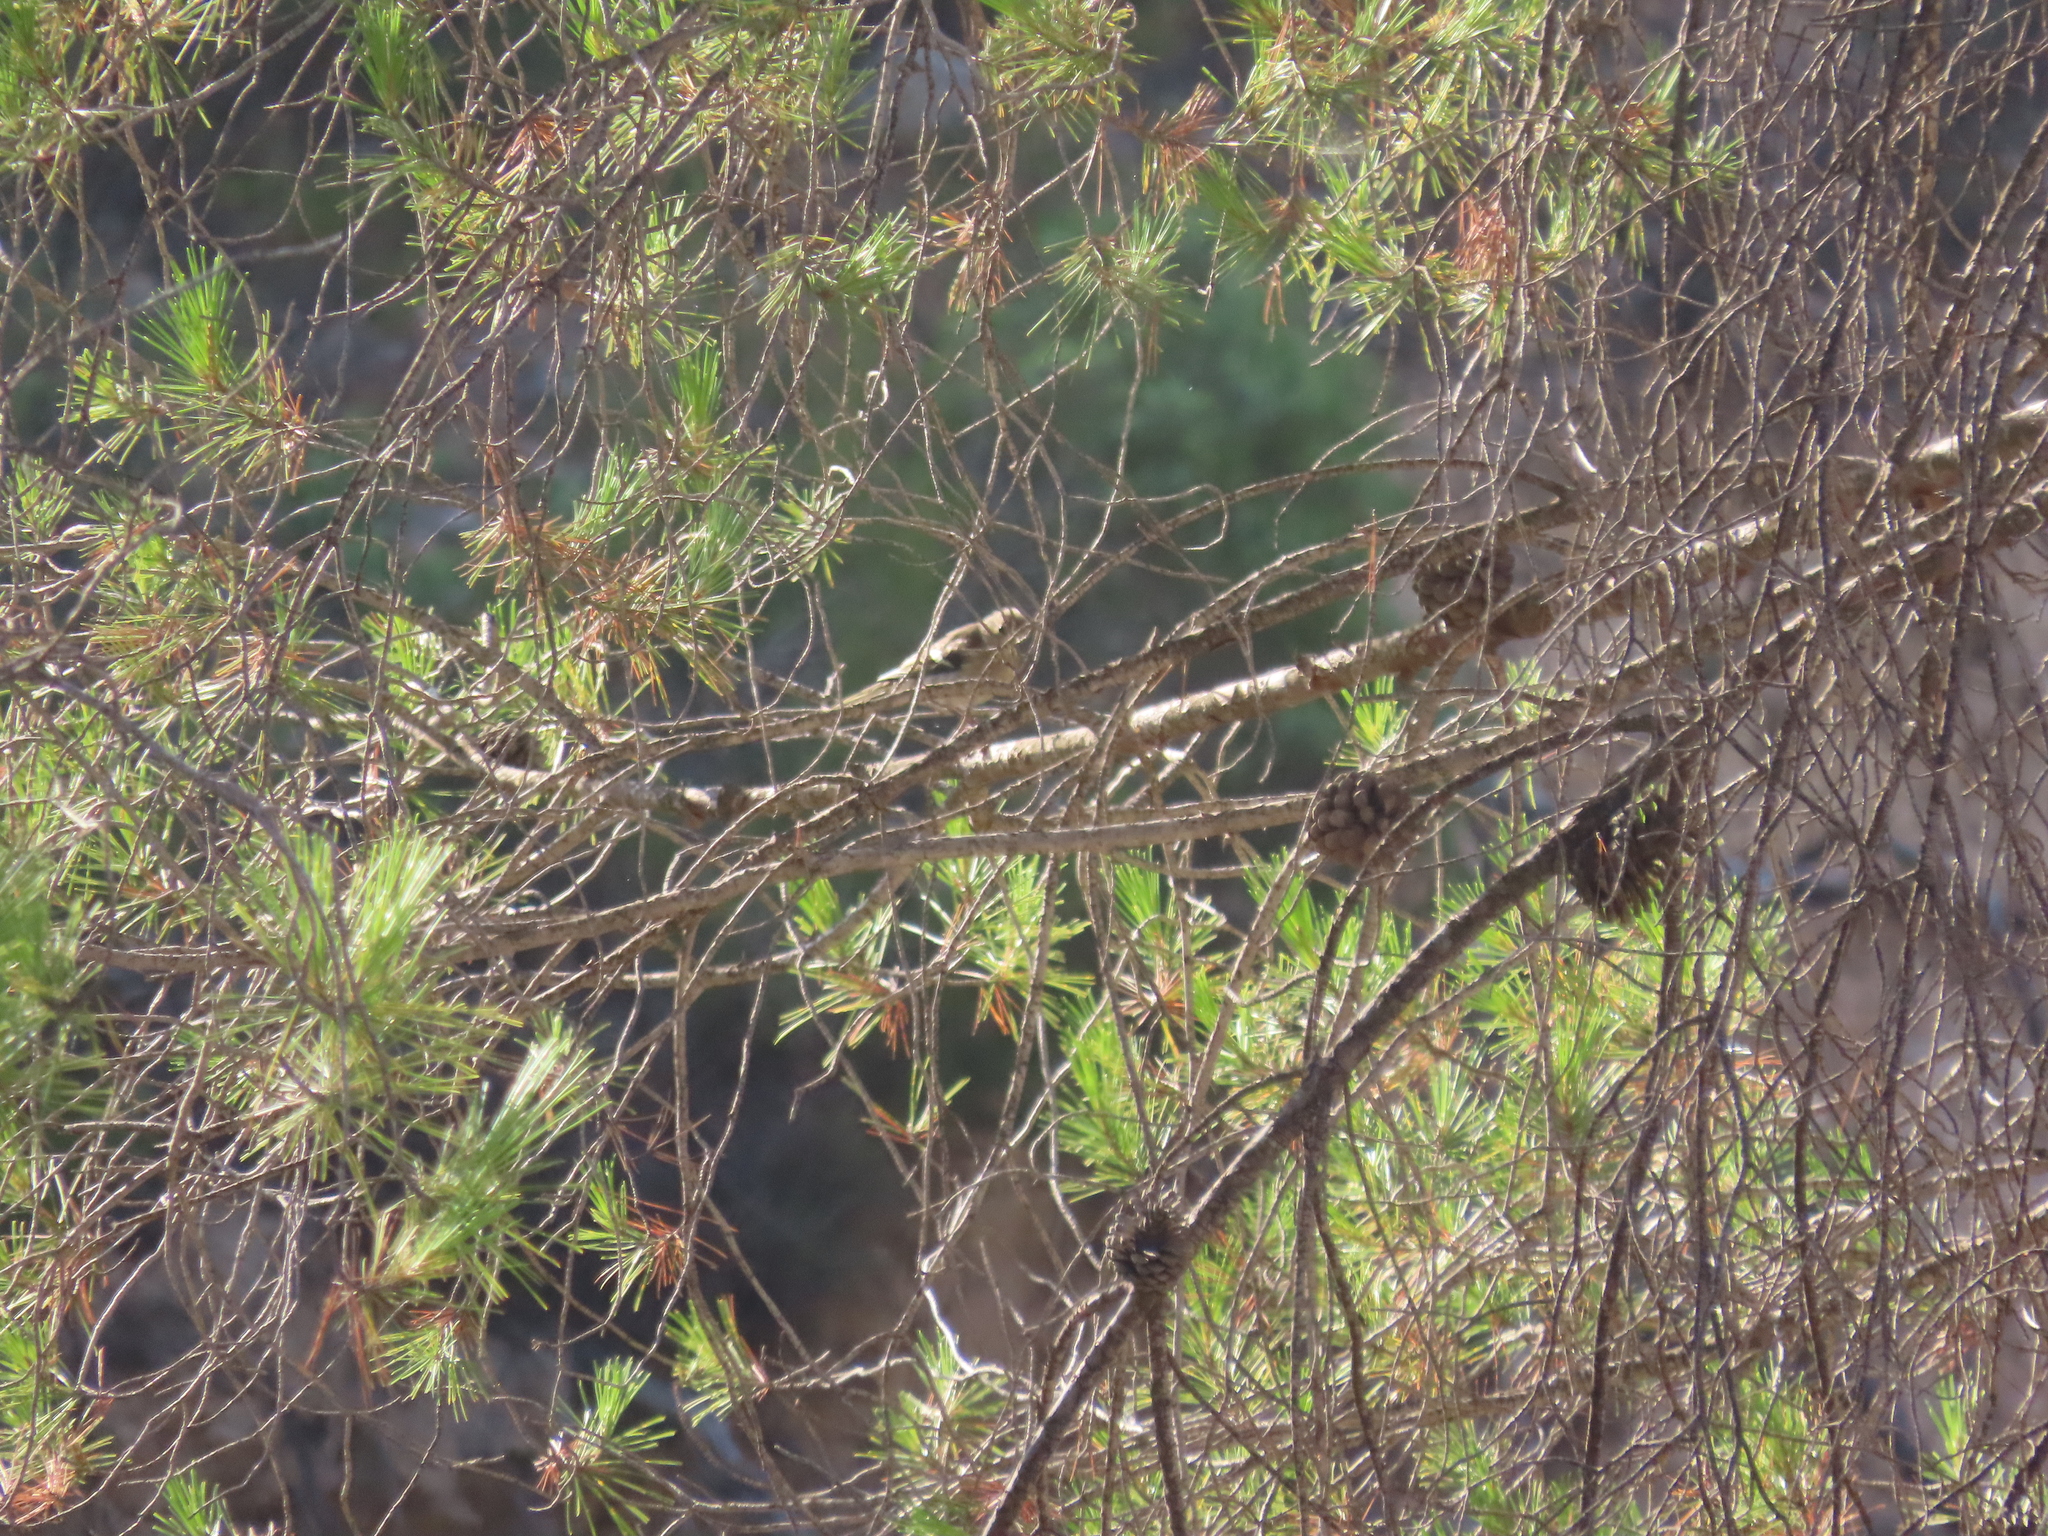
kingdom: Animalia
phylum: Chordata
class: Aves
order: Passeriformes
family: Fringillidae
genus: Fringilla
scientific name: Fringilla coelebs
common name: Common chaffinch
